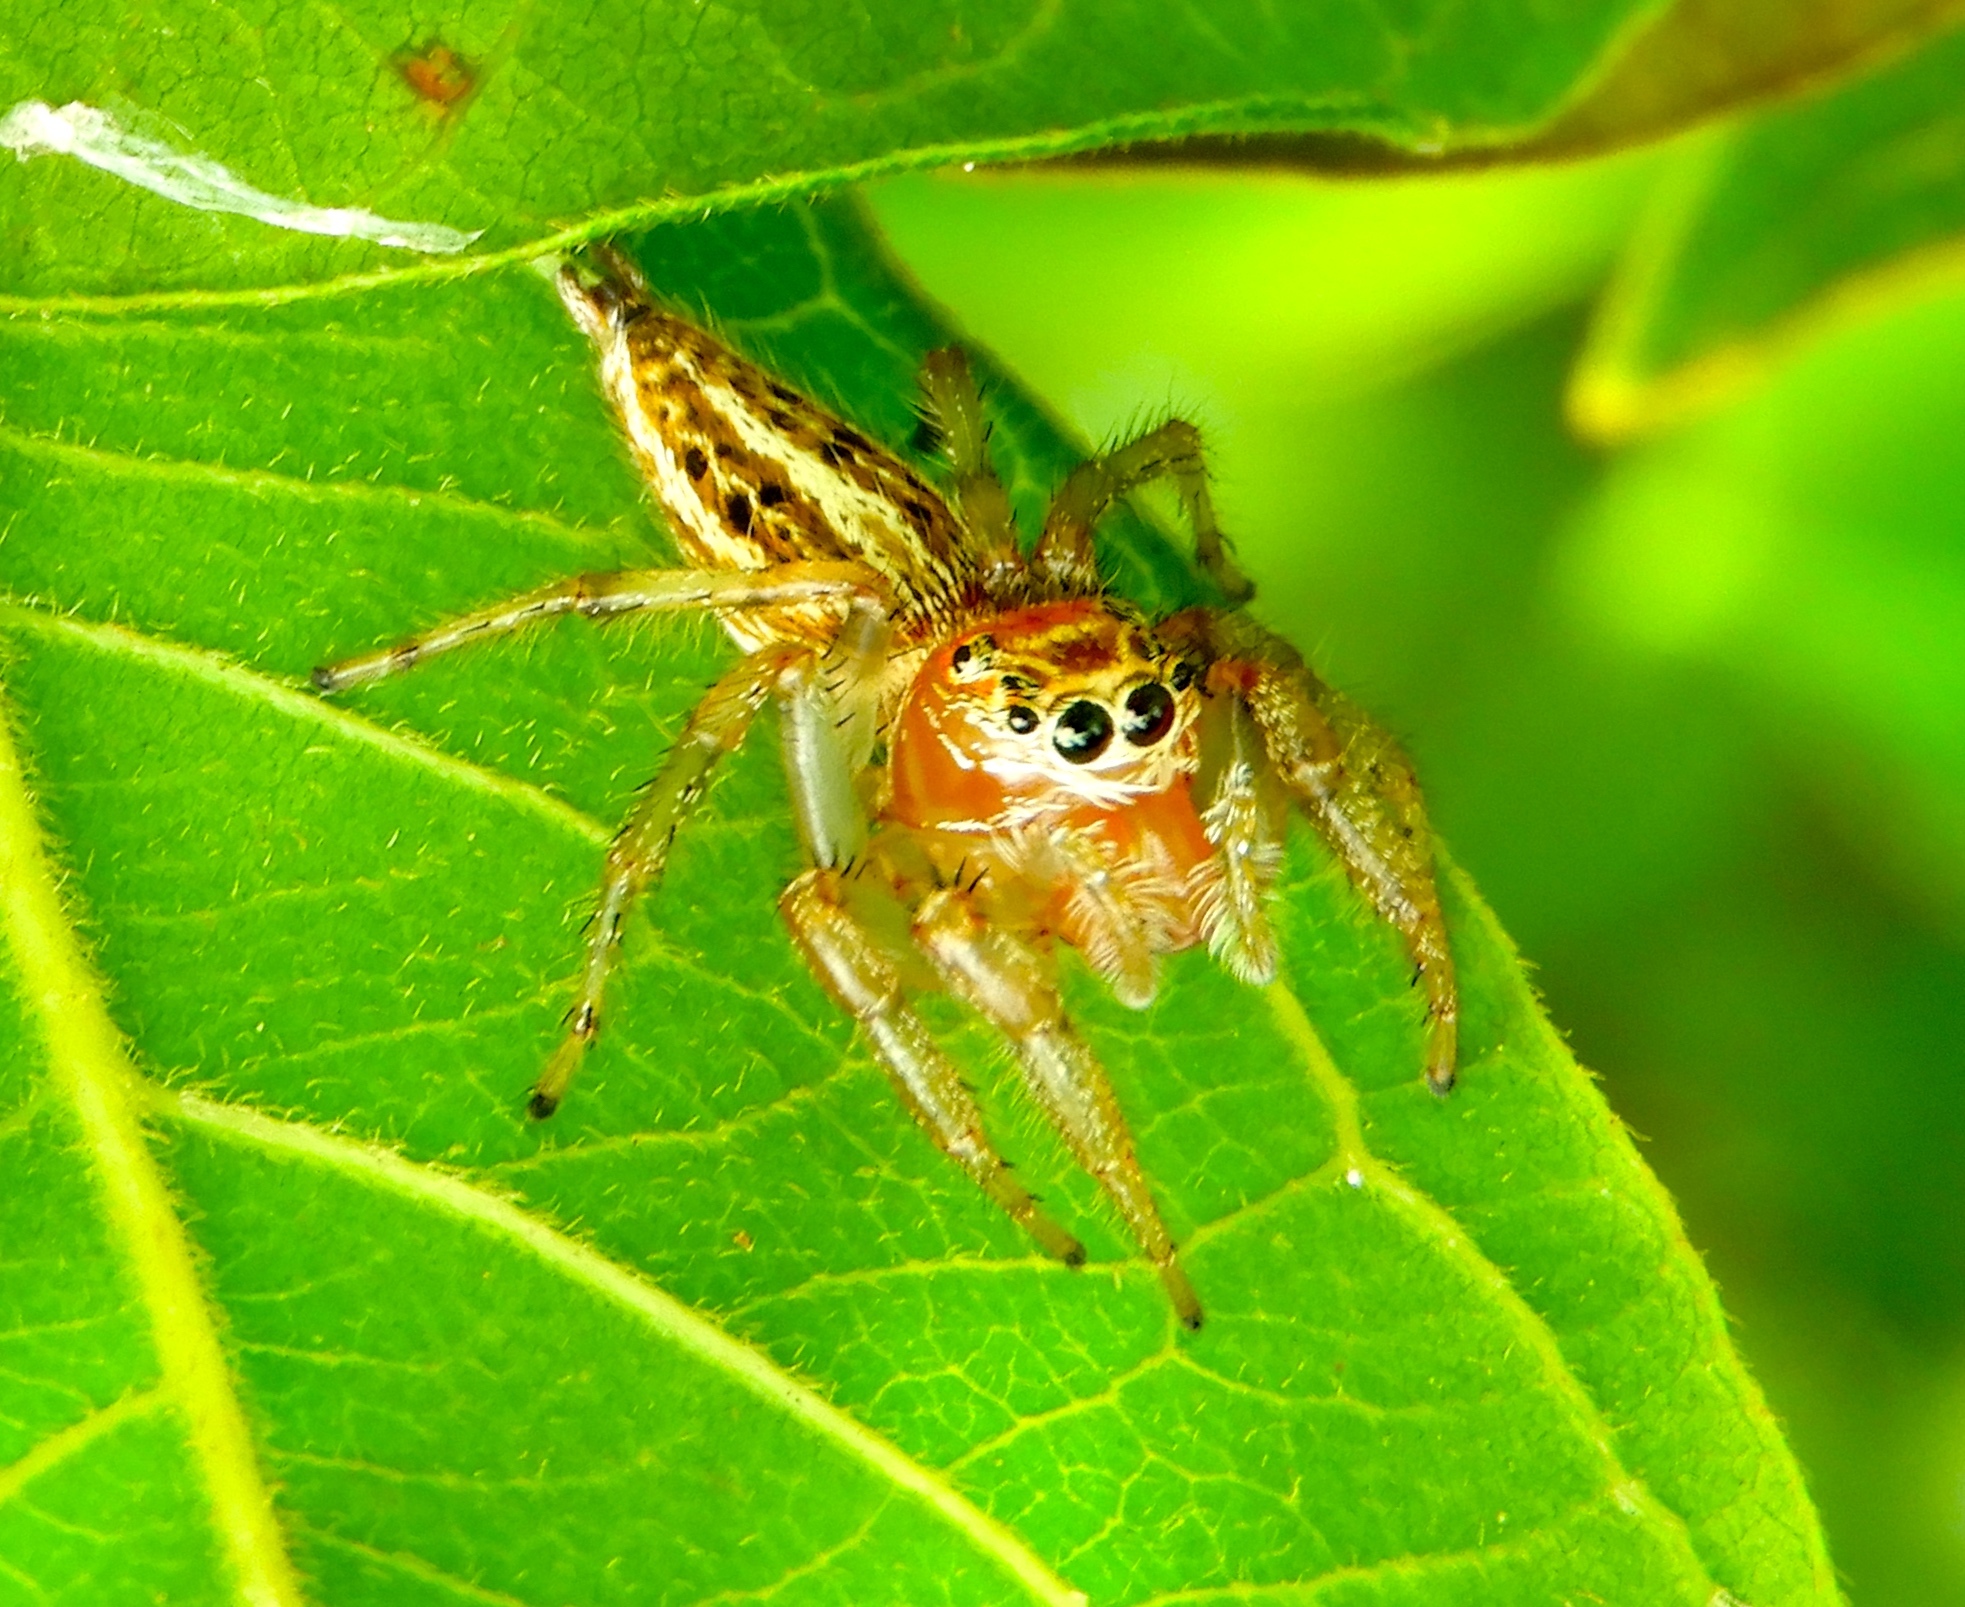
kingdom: Animalia
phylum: Arthropoda
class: Arachnida
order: Araneae
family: Salticidae
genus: Colonus
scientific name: Colonus
